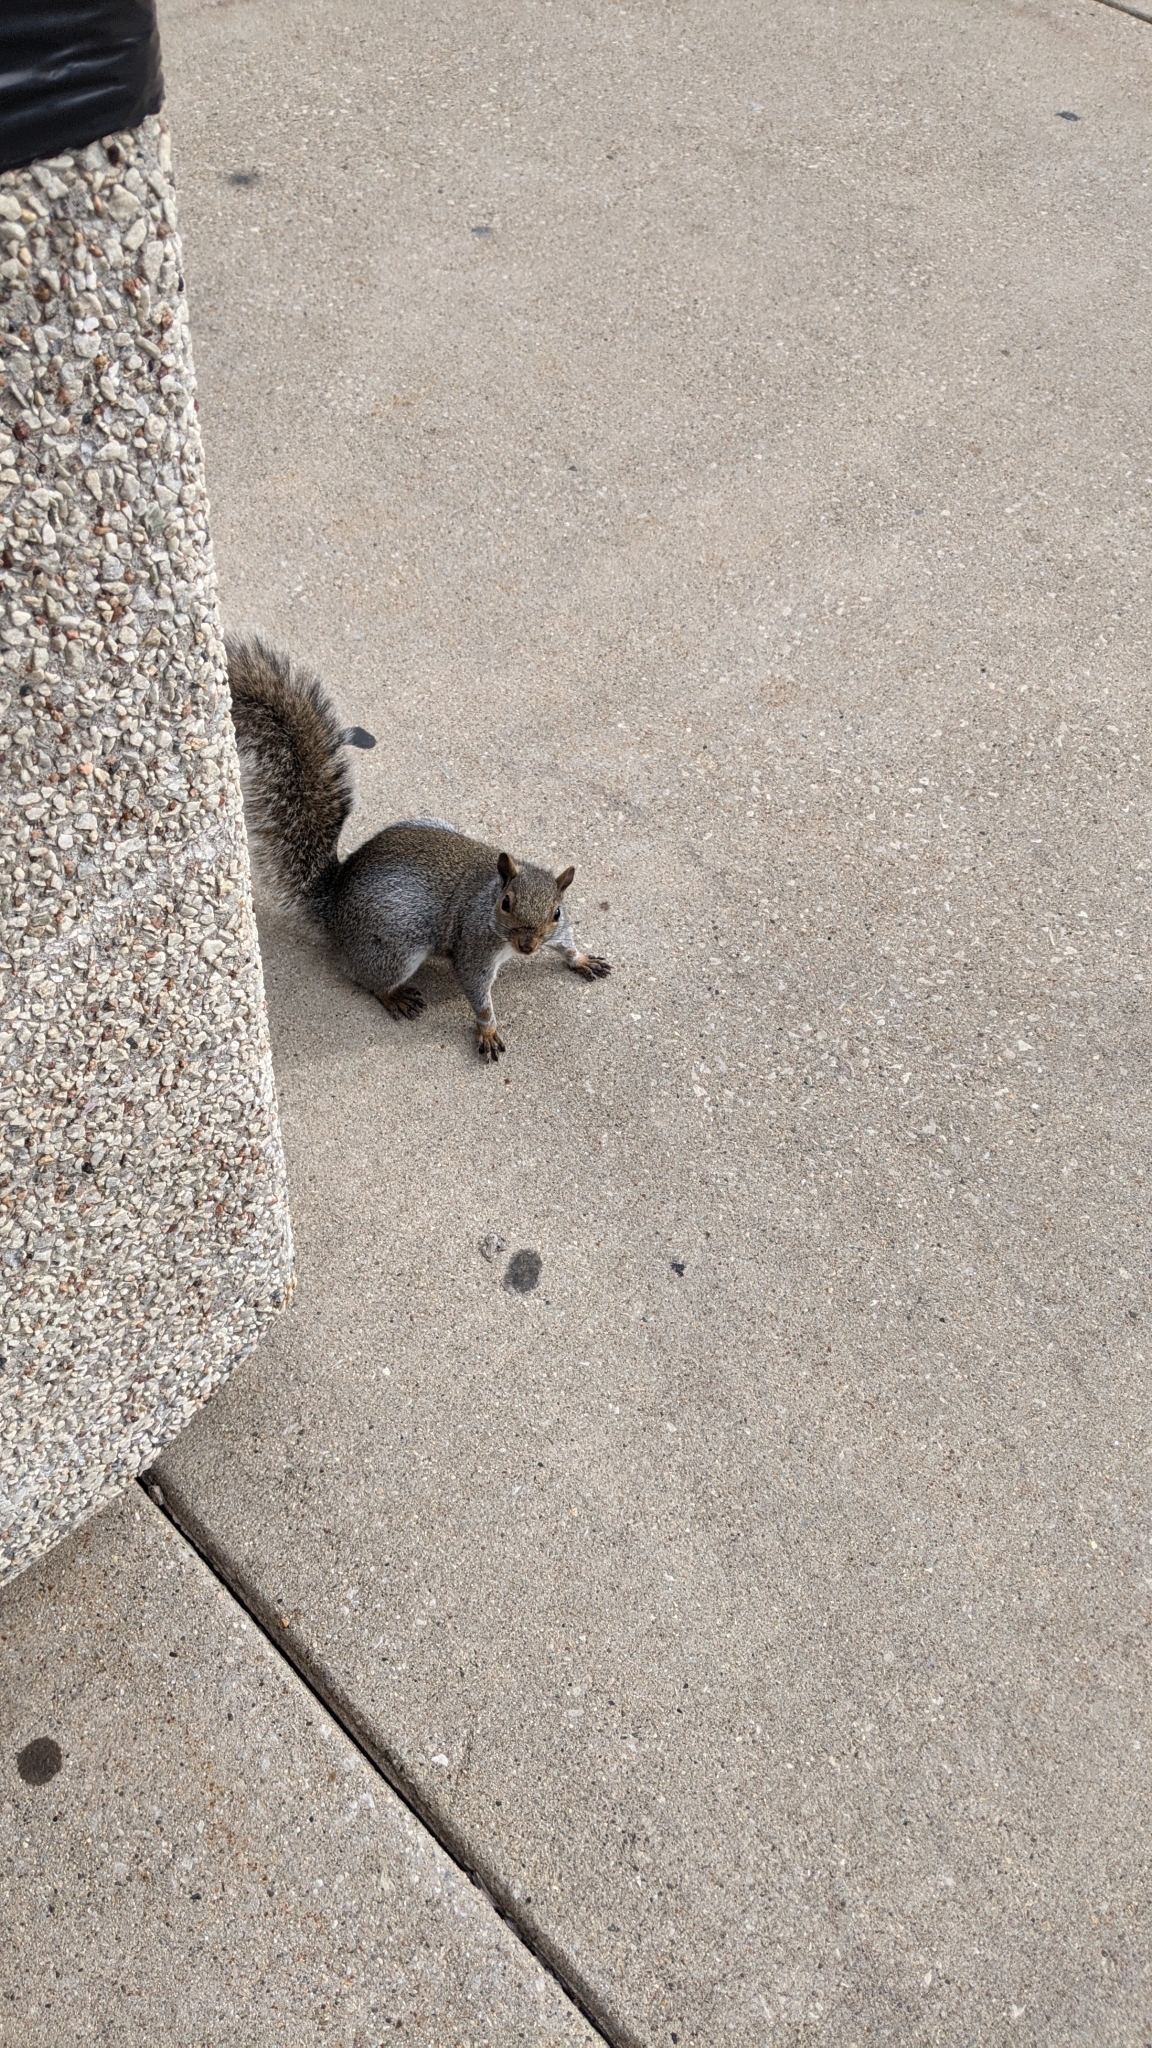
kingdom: Animalia
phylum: Chordata
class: Mammalia
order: Rodentia
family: Sciuridae
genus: Sciurus
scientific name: Sciurus carolinensis
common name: Eastern gray squirrel
